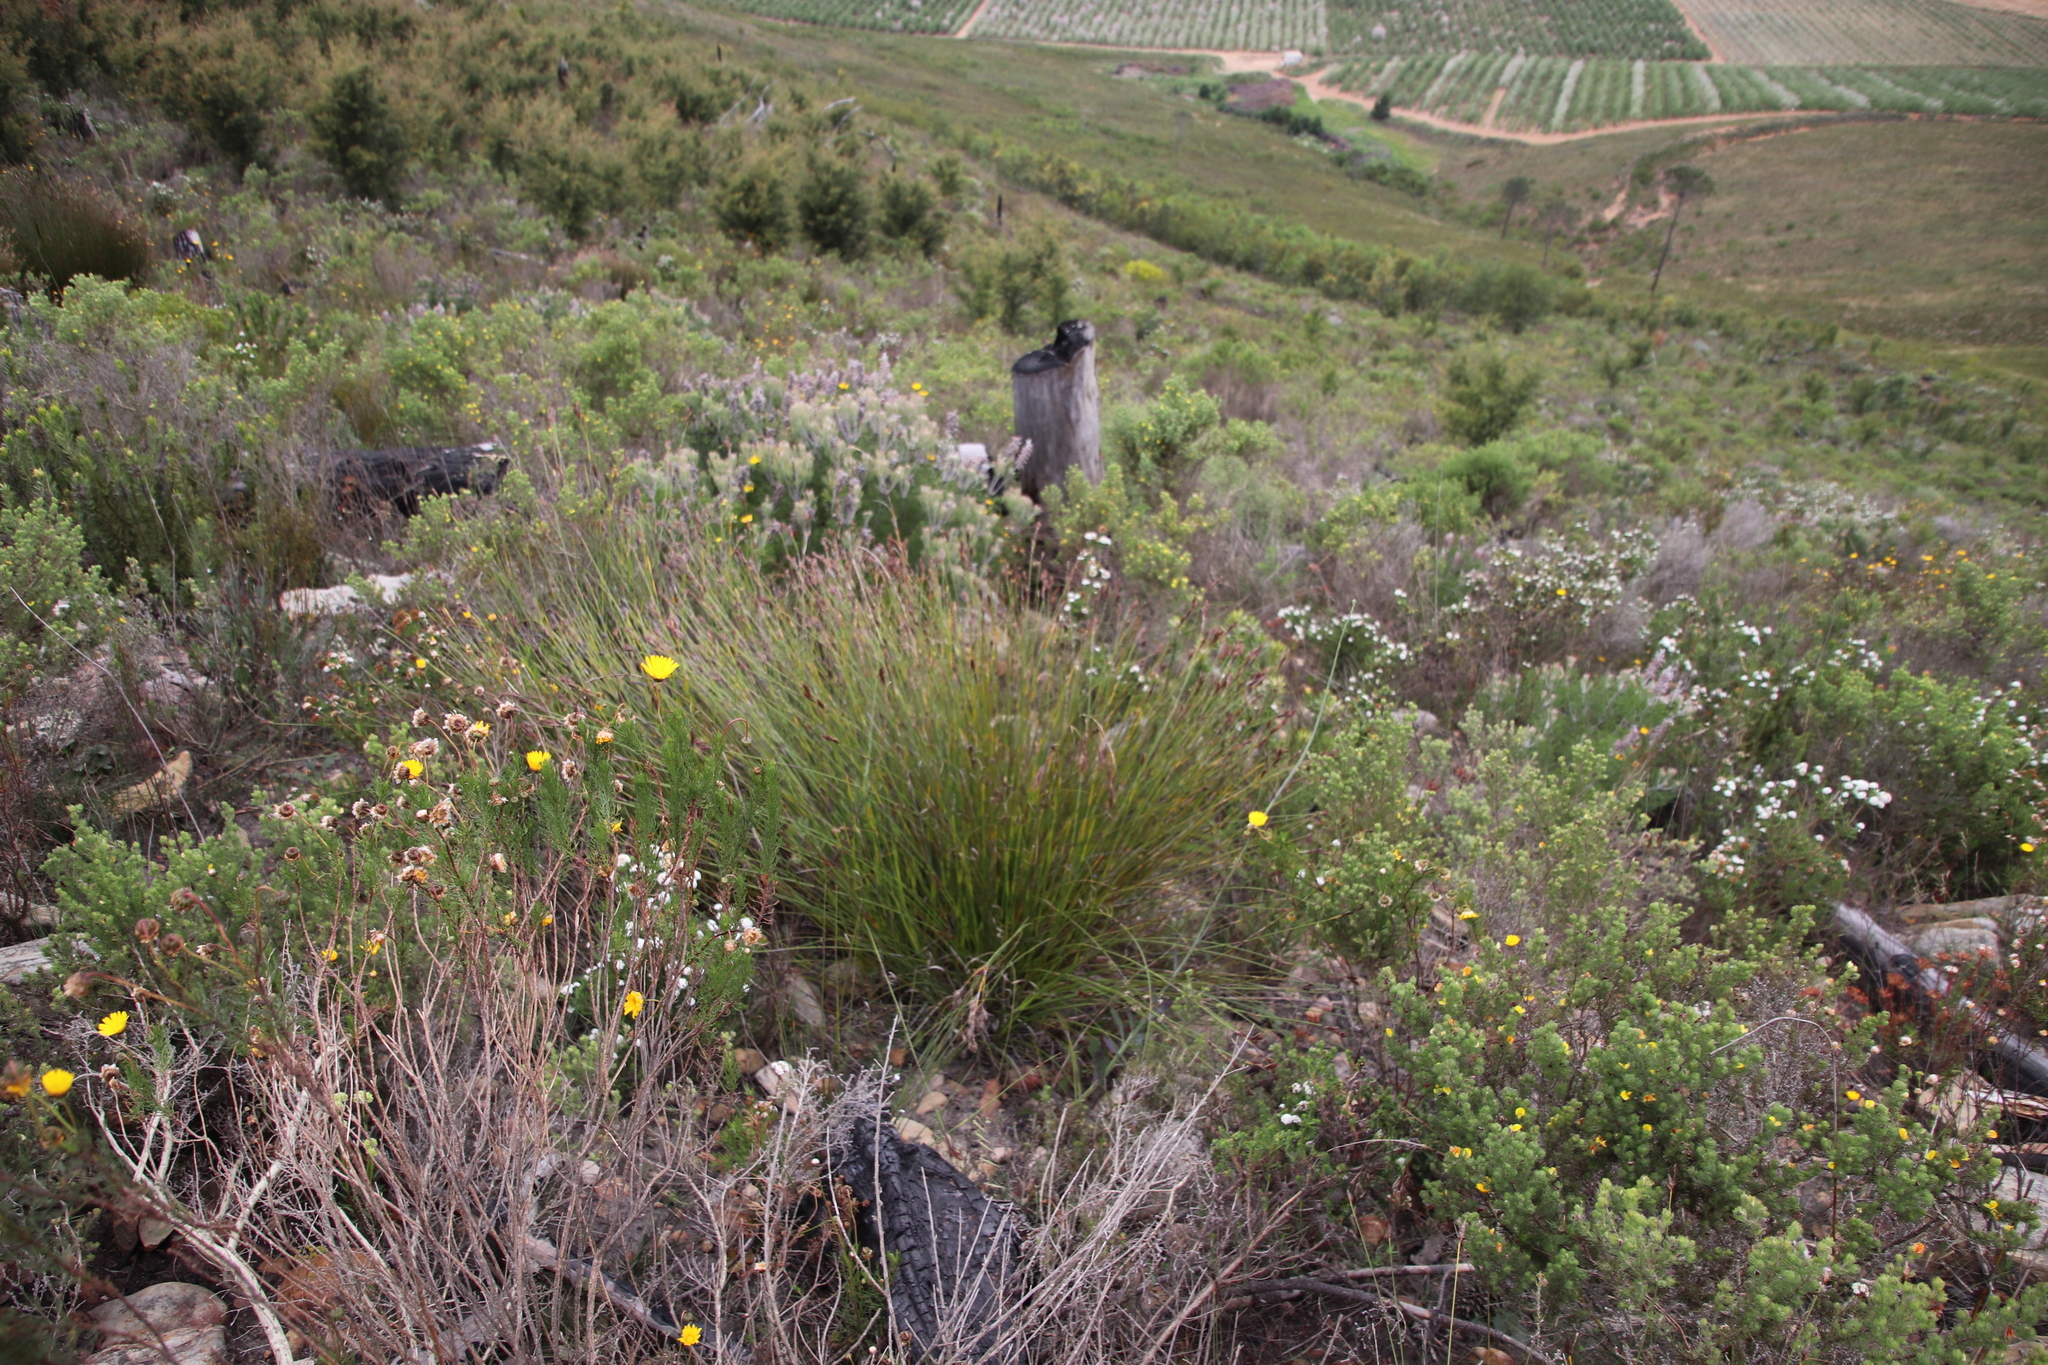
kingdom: Plantae
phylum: Tracheophyta
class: Liliopsida
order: Poales
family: Restionaceae
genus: Hypodiscus
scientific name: Hypodiscus aristatus
